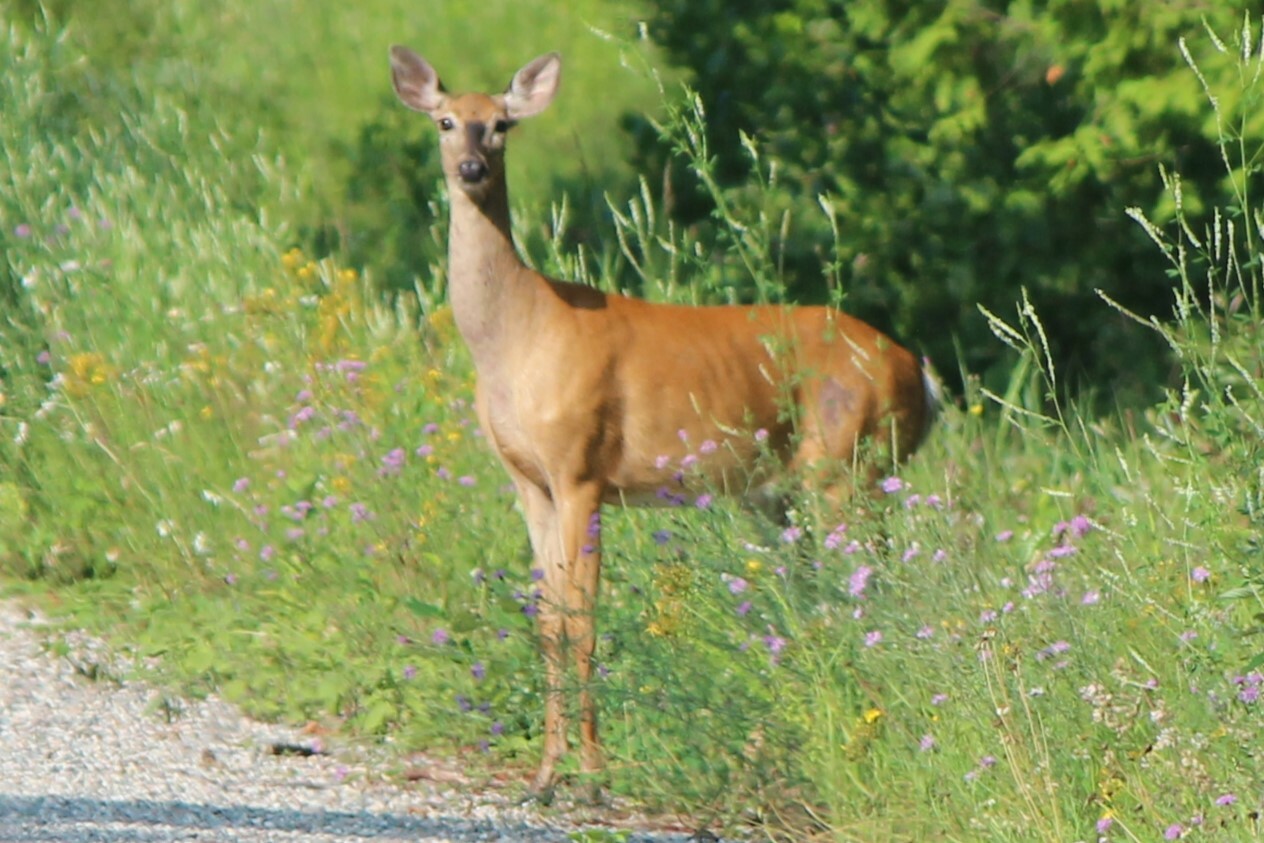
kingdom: Animalia
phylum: Chordata
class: Mammalia
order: Artiodactyla
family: Cervidae
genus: Odocoileus
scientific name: Odocoileus virginianus
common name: White-tailed deer
